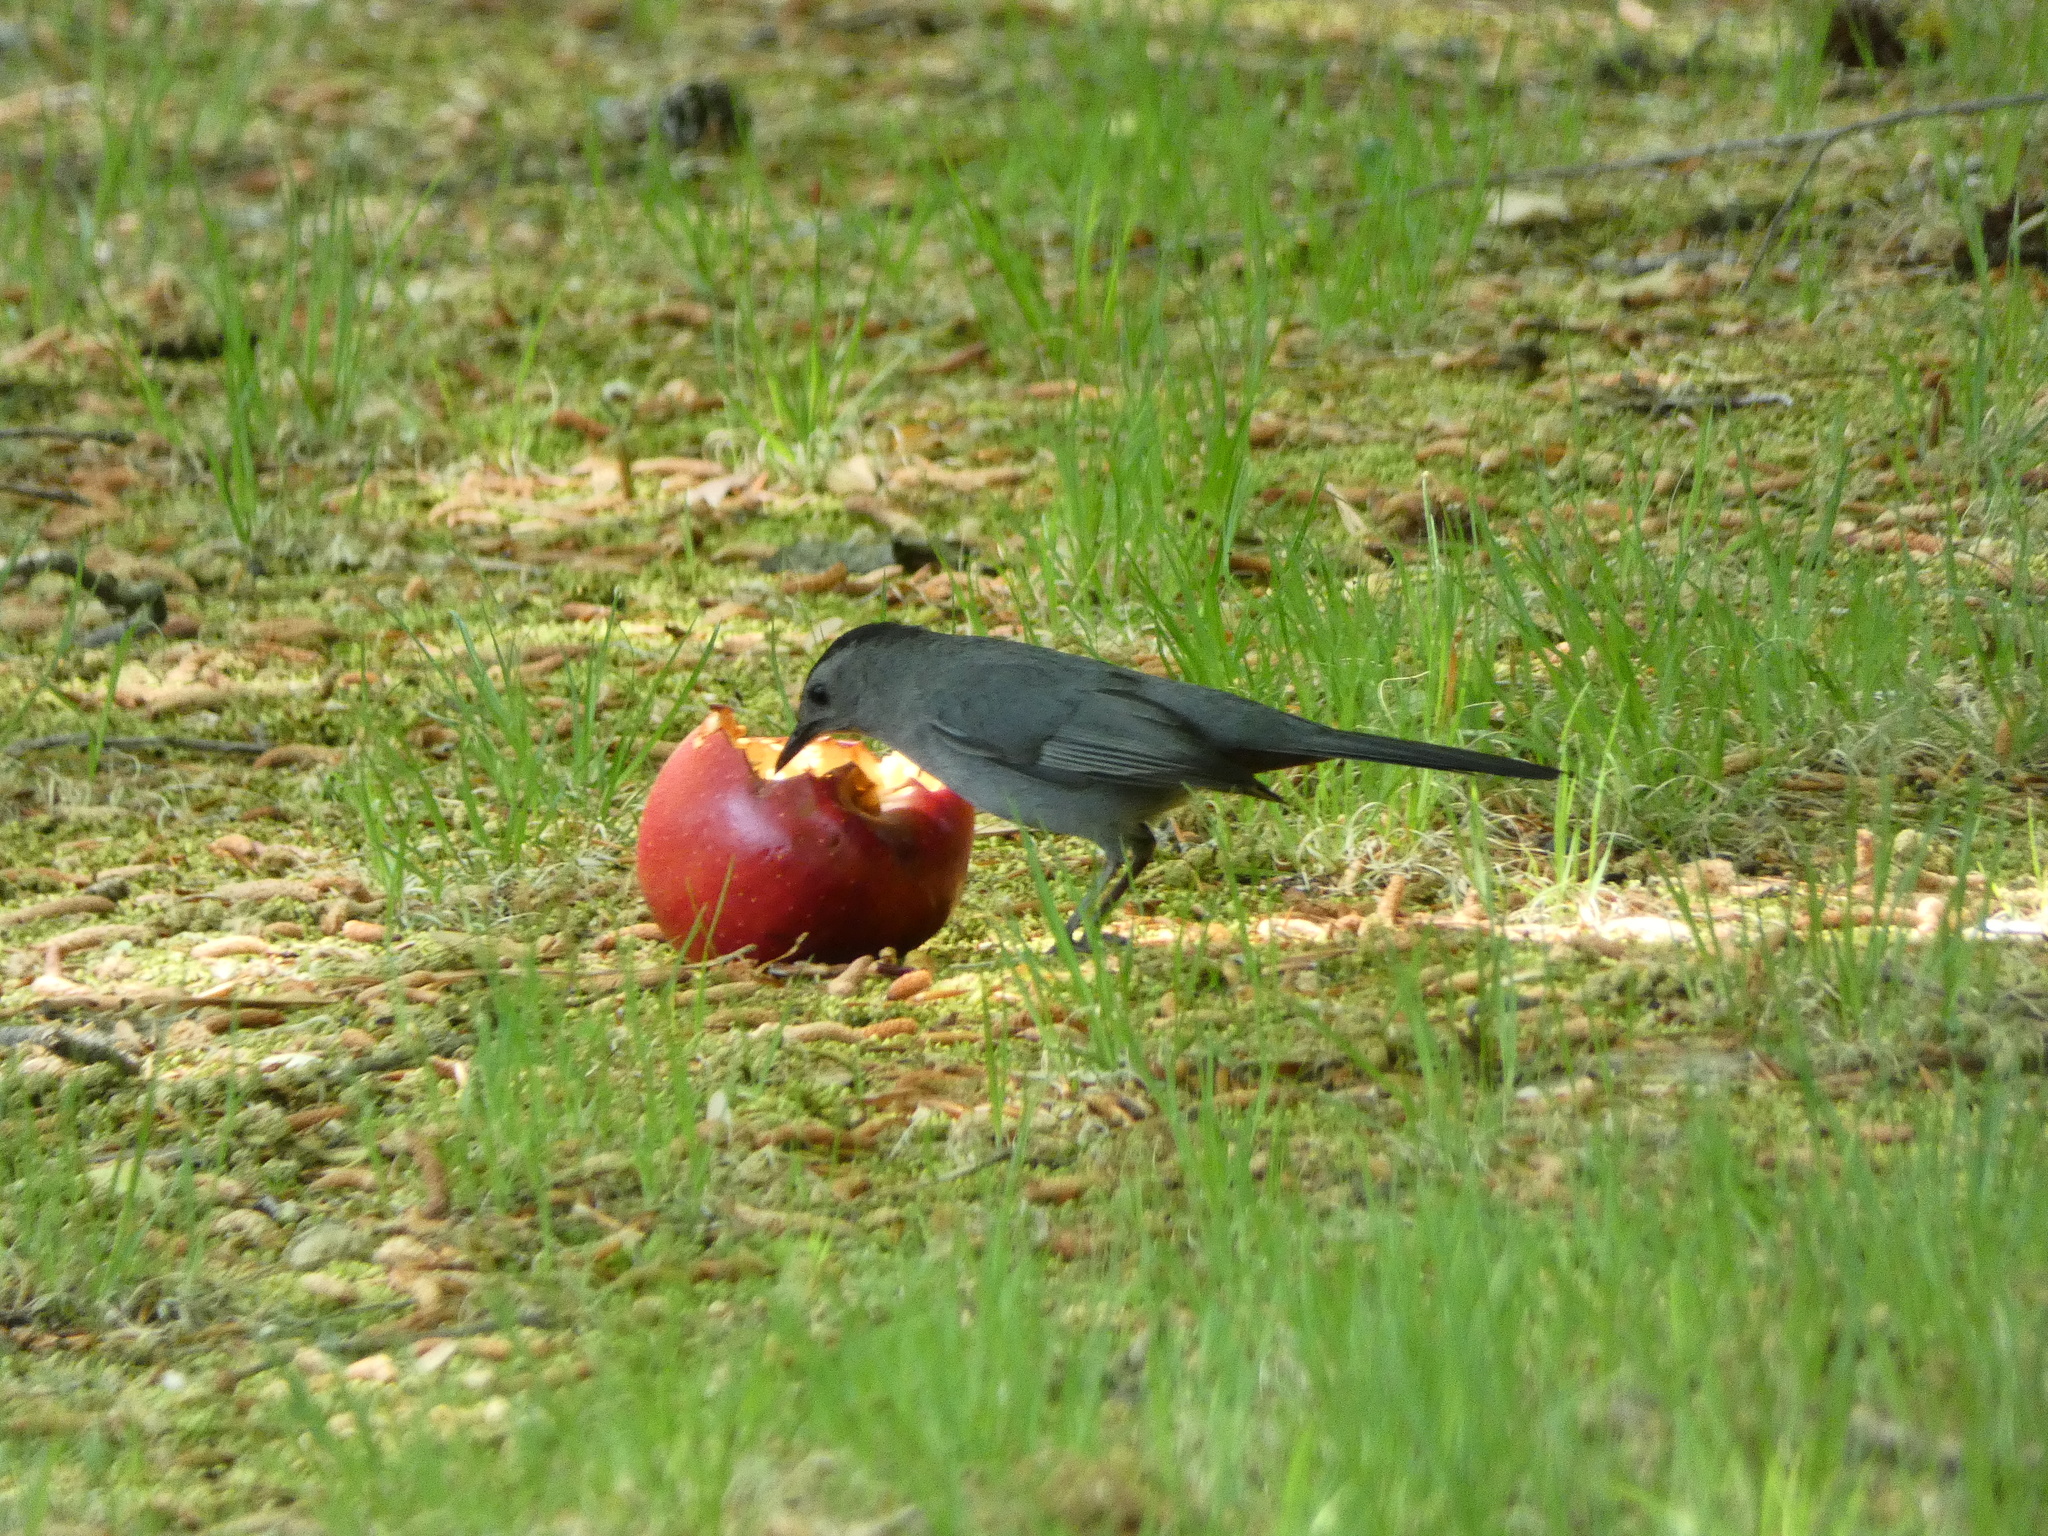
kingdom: Animalia
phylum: Chordata
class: Aves
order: Passeriformes
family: Mimidae
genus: Dumetella
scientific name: Dumetella carolinensis
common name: Gray catbird
